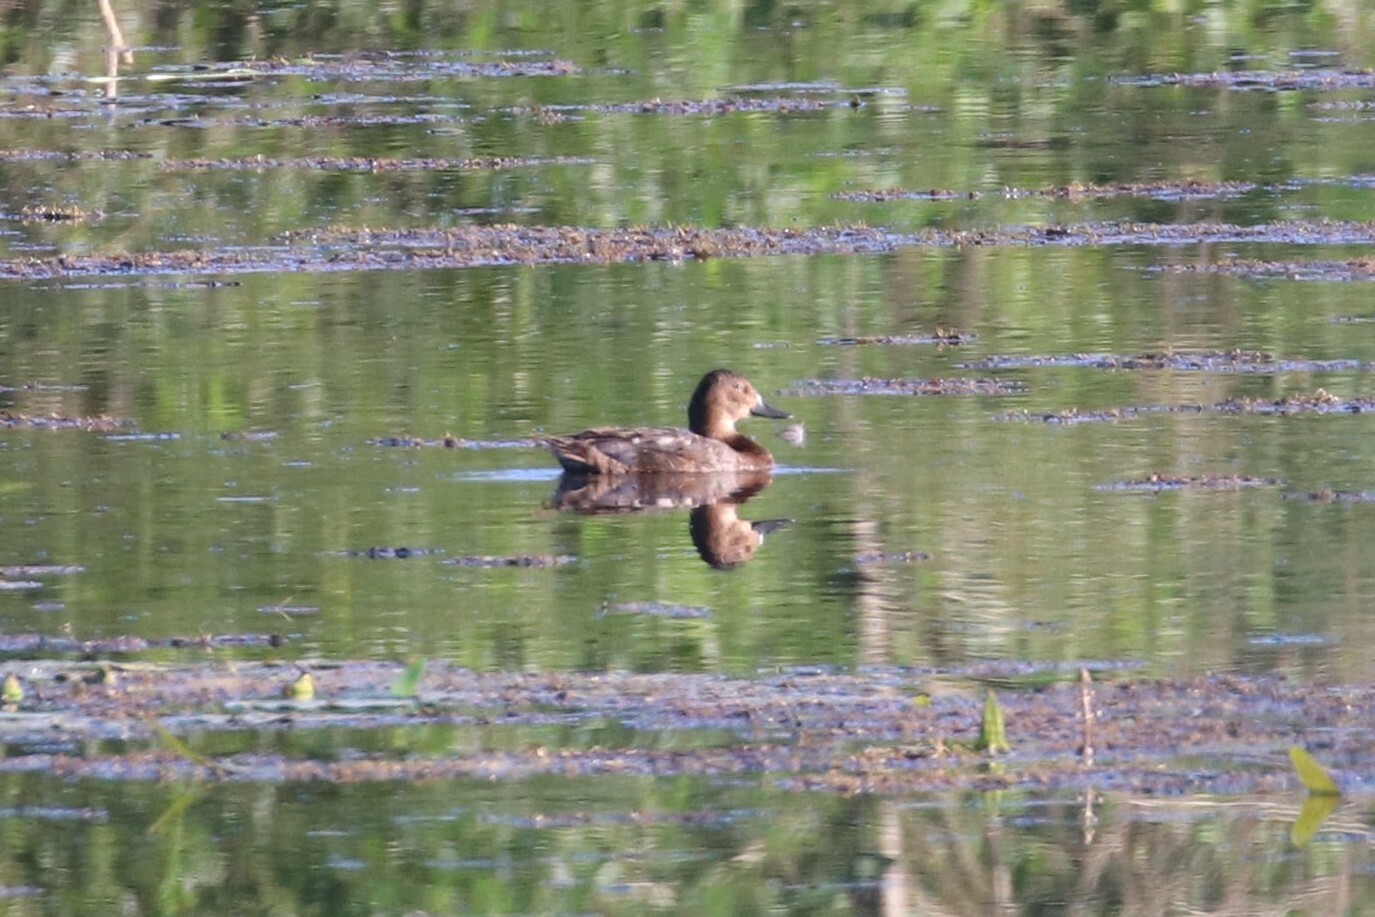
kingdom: Animalia
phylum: Chordata
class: Aves
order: Anseriformes
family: Anatidae
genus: Aythya
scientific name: Aythya ferina
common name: Common pochard
